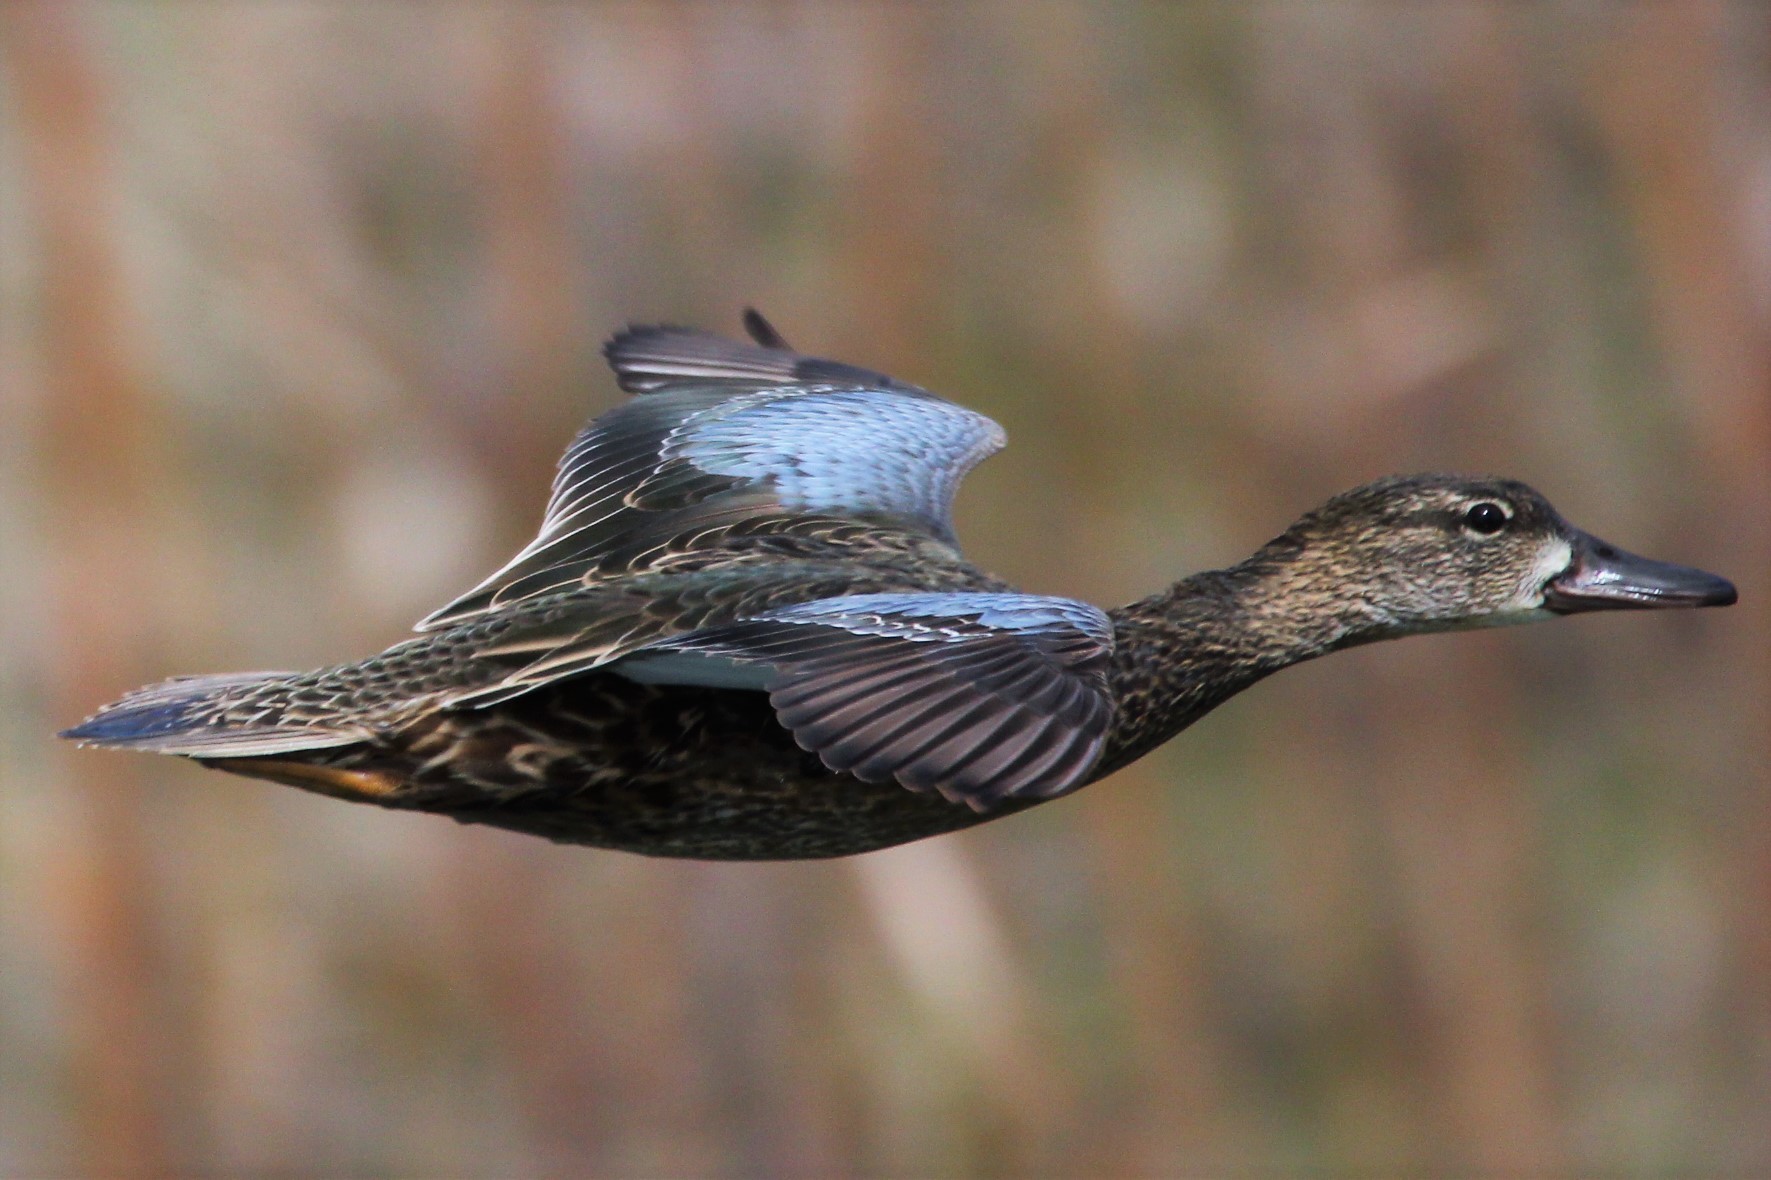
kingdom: Animalia
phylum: Chordata
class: Aves
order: Anseriformes
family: Anatidae
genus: Spatula
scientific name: Spatula discors
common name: Blue-winged teal
